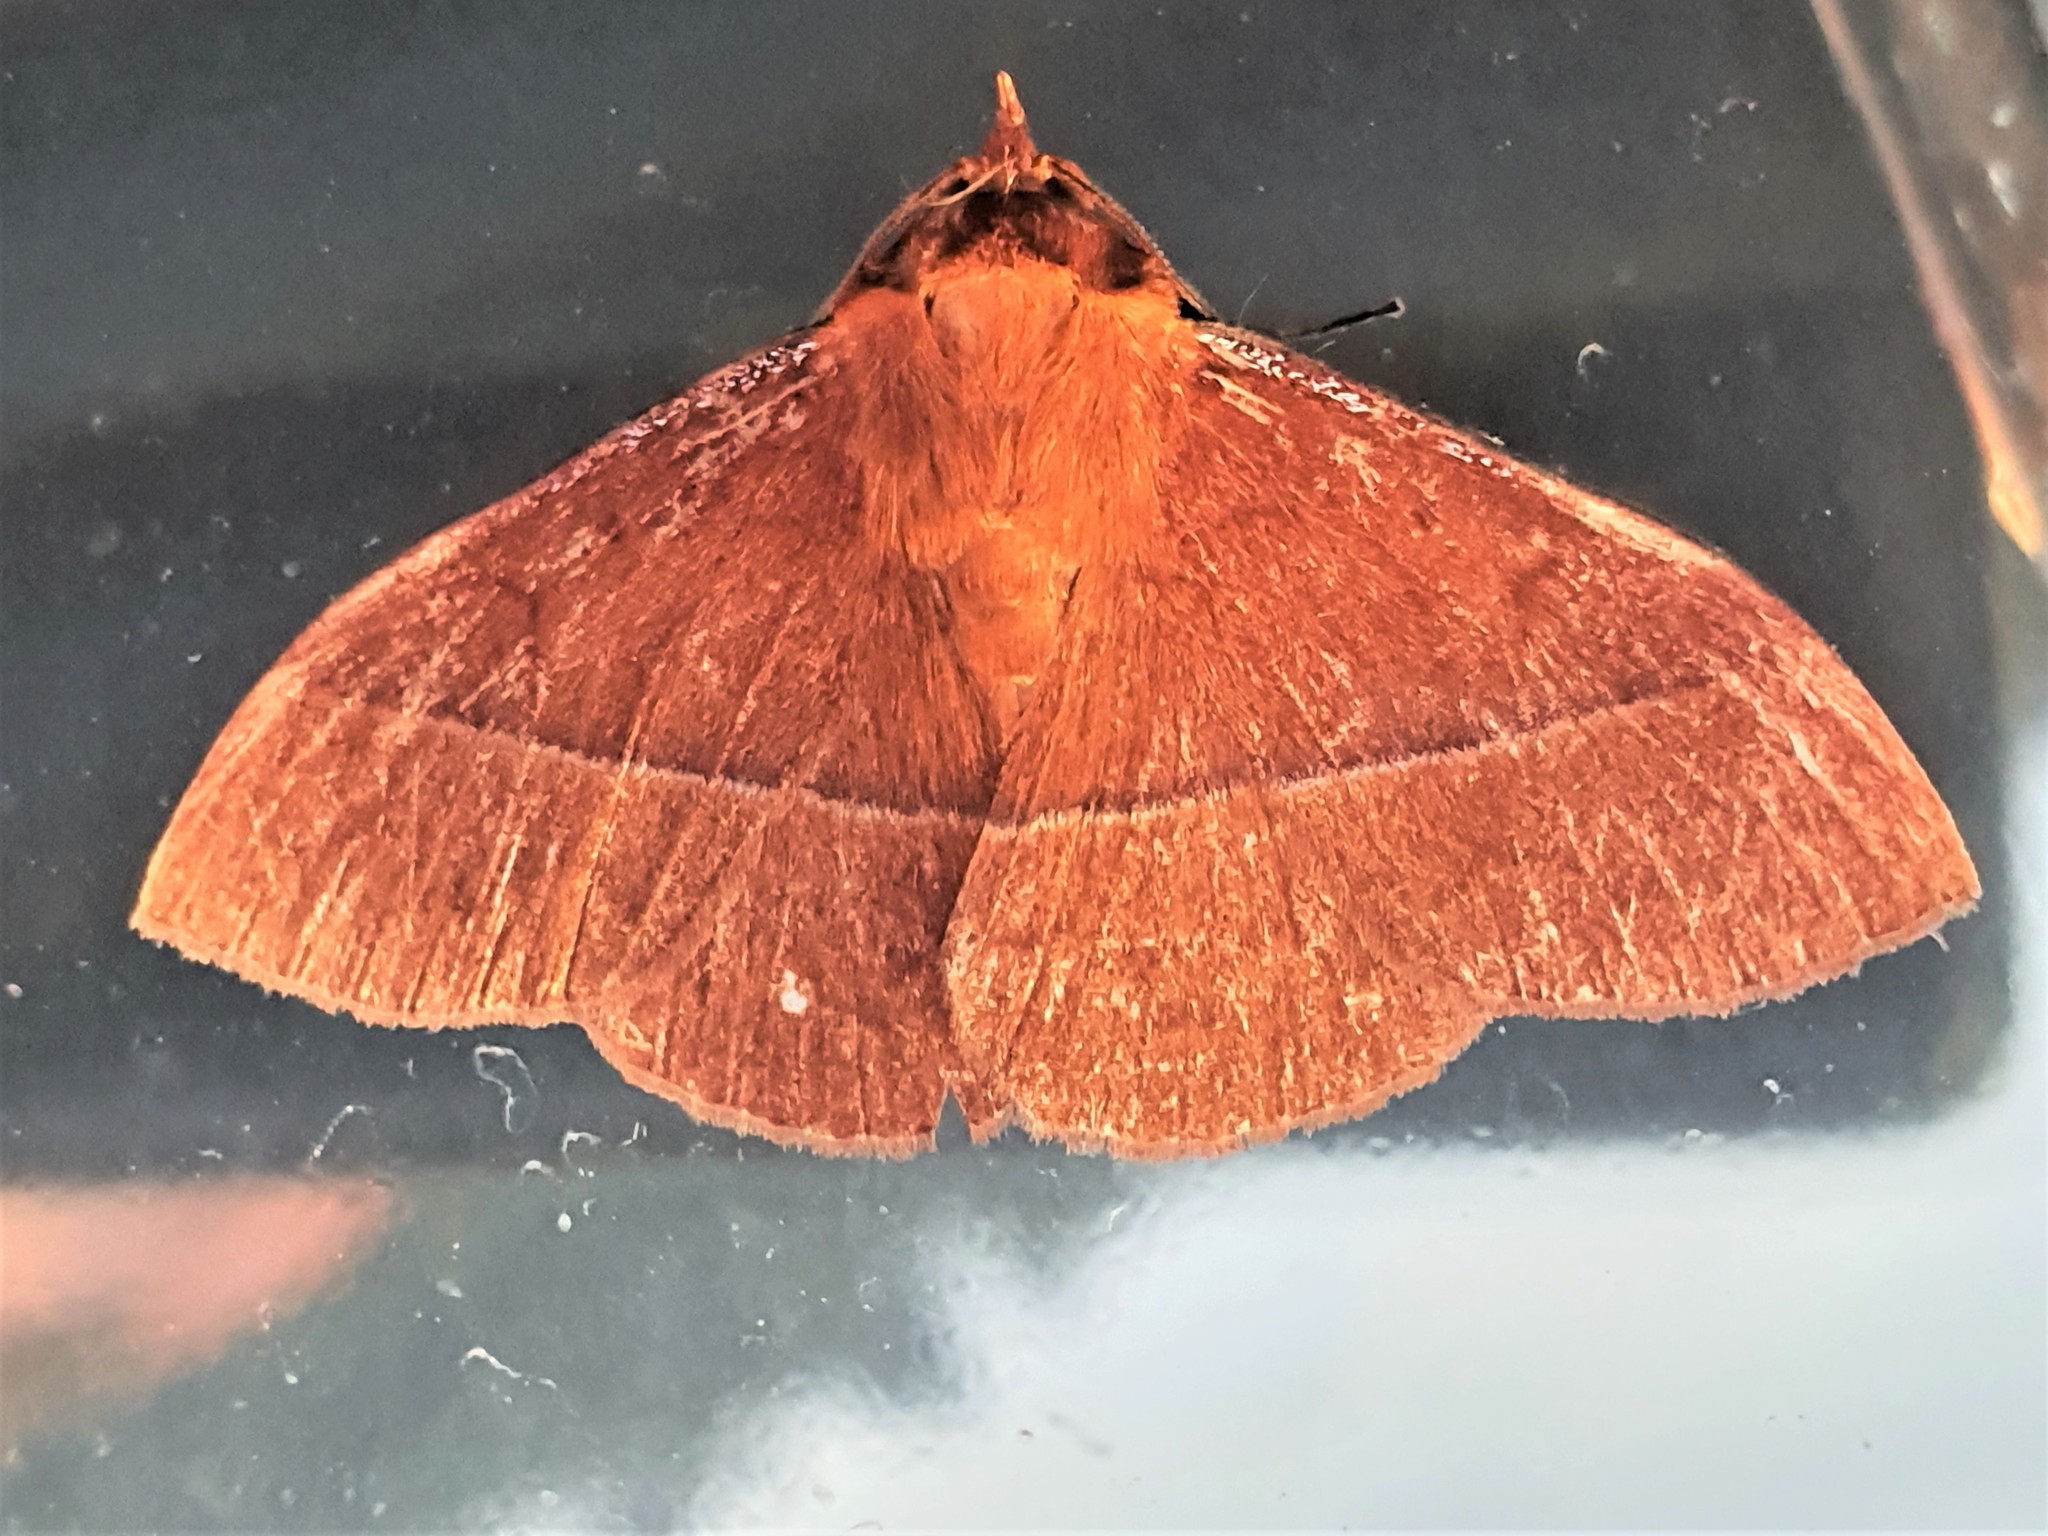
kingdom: Animalia
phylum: Arthropoda
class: Insecta
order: Lepidoptera
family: Erebidae
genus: Epitausa
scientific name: Epitausa flagrans
